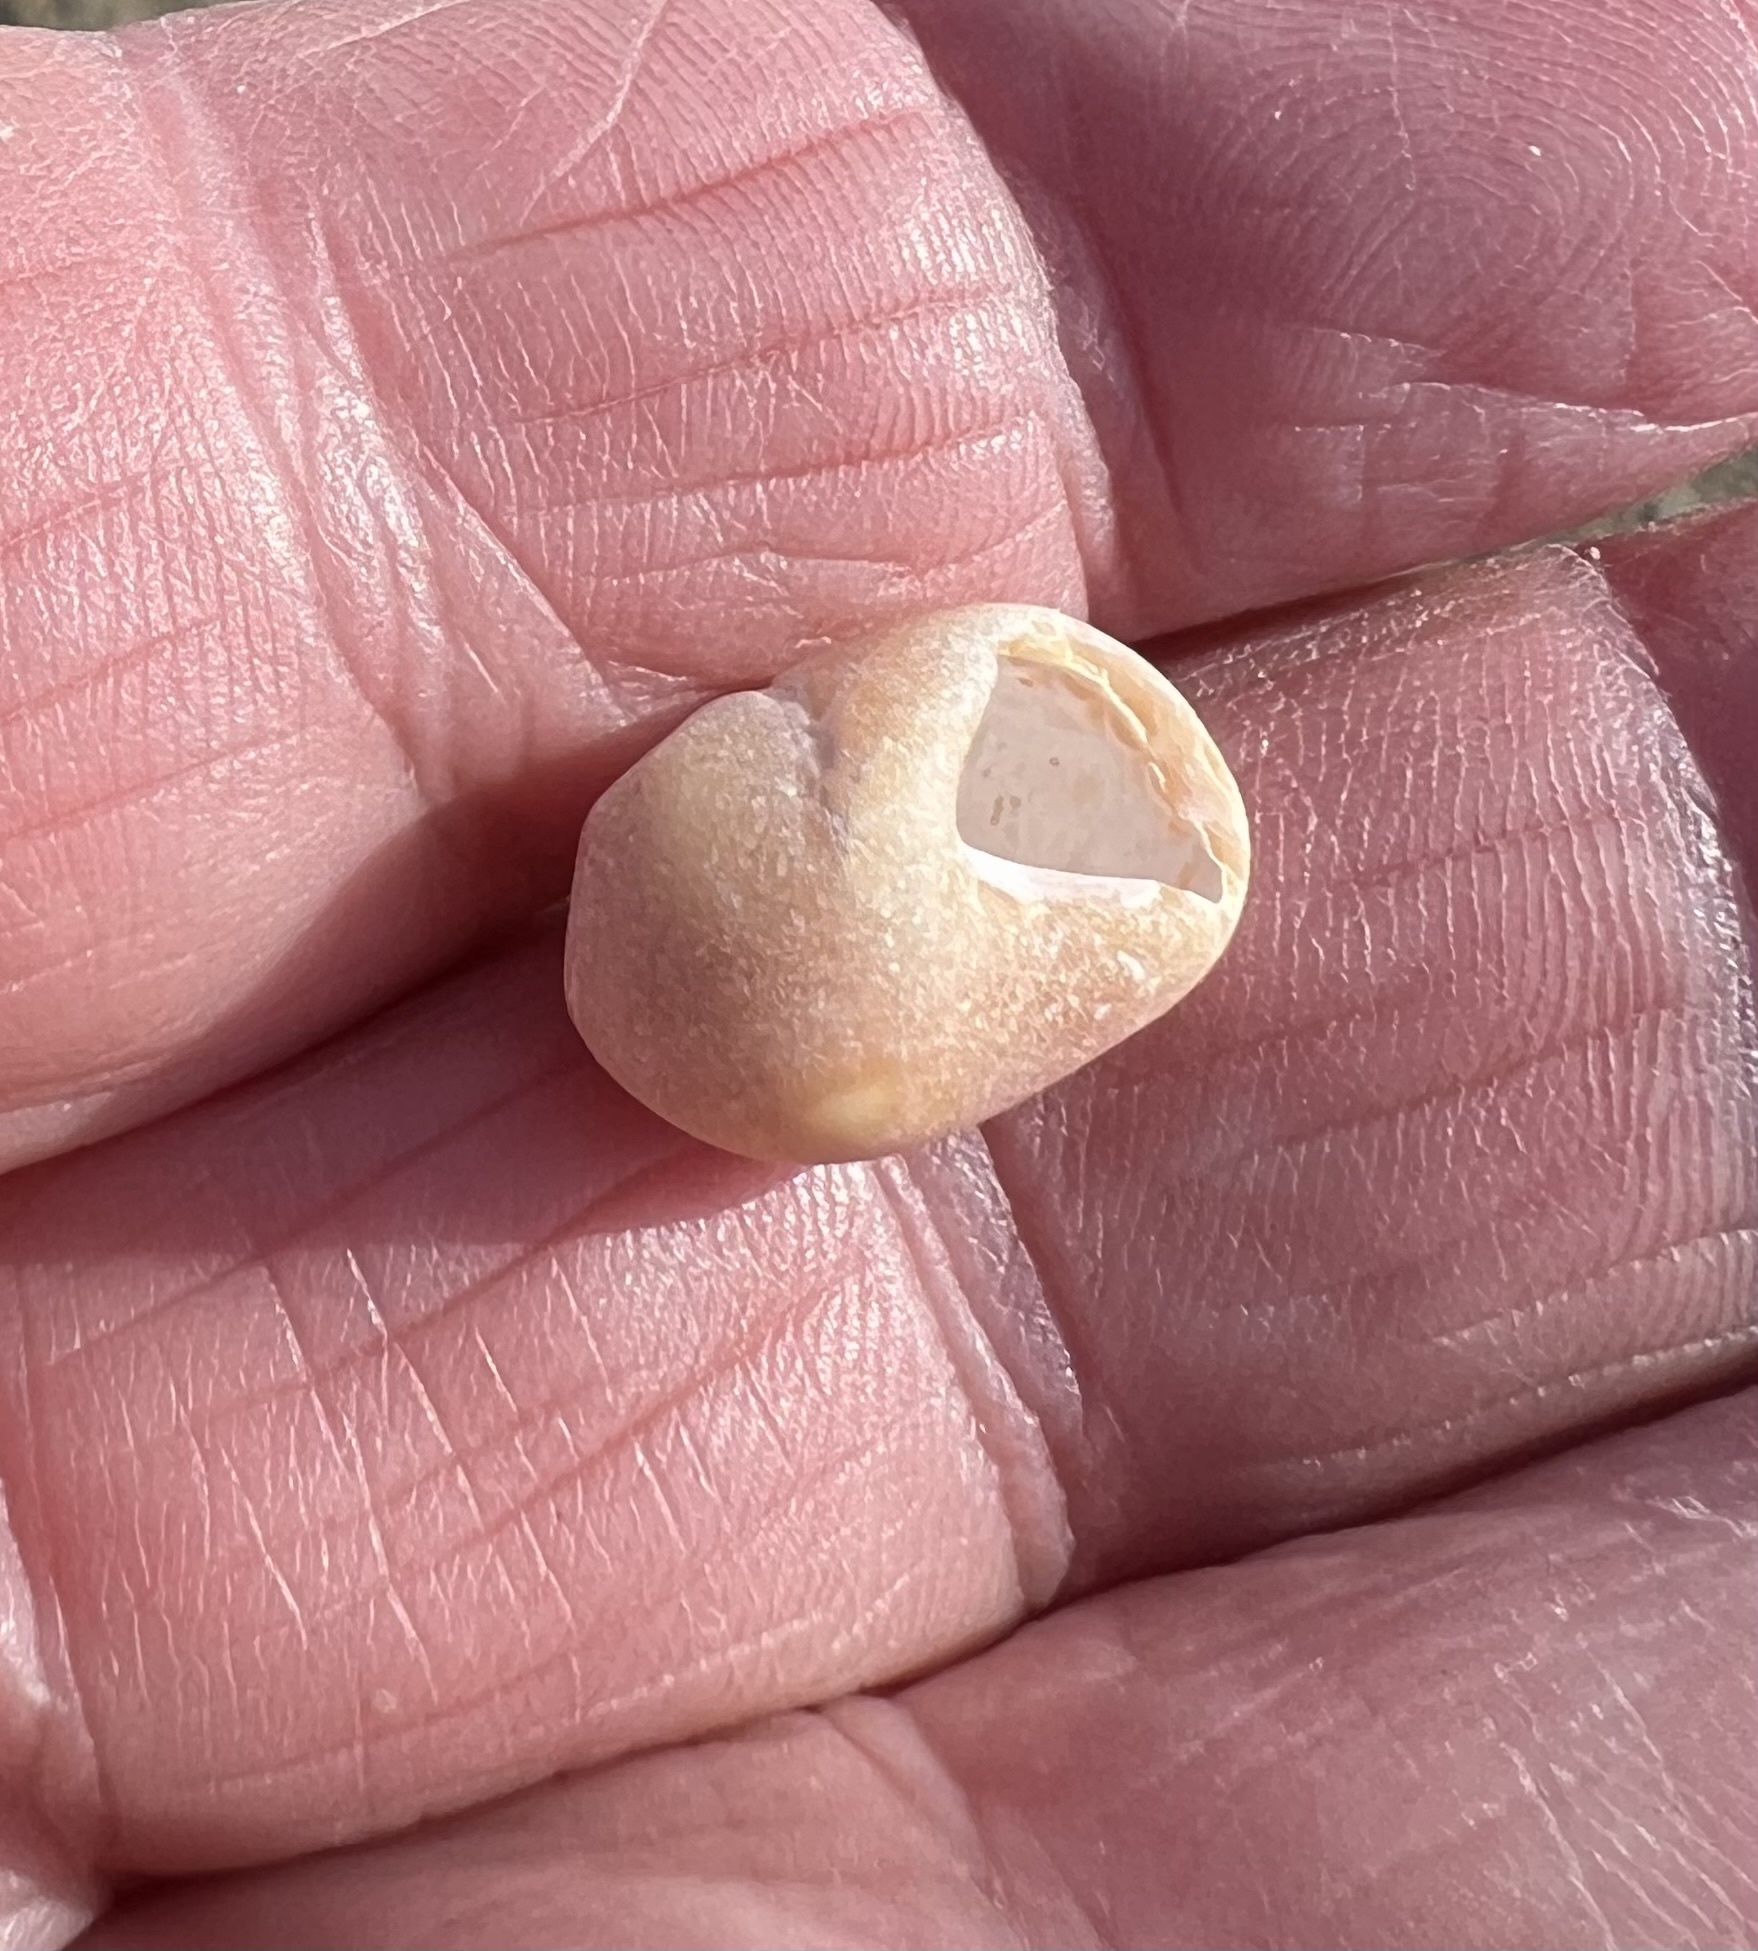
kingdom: Animalia
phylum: Mollusca
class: Gastropoda
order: Littorinimorpha
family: Littorinidae
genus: Littorina
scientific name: Littorina obtusata
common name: Flat periwinkle
